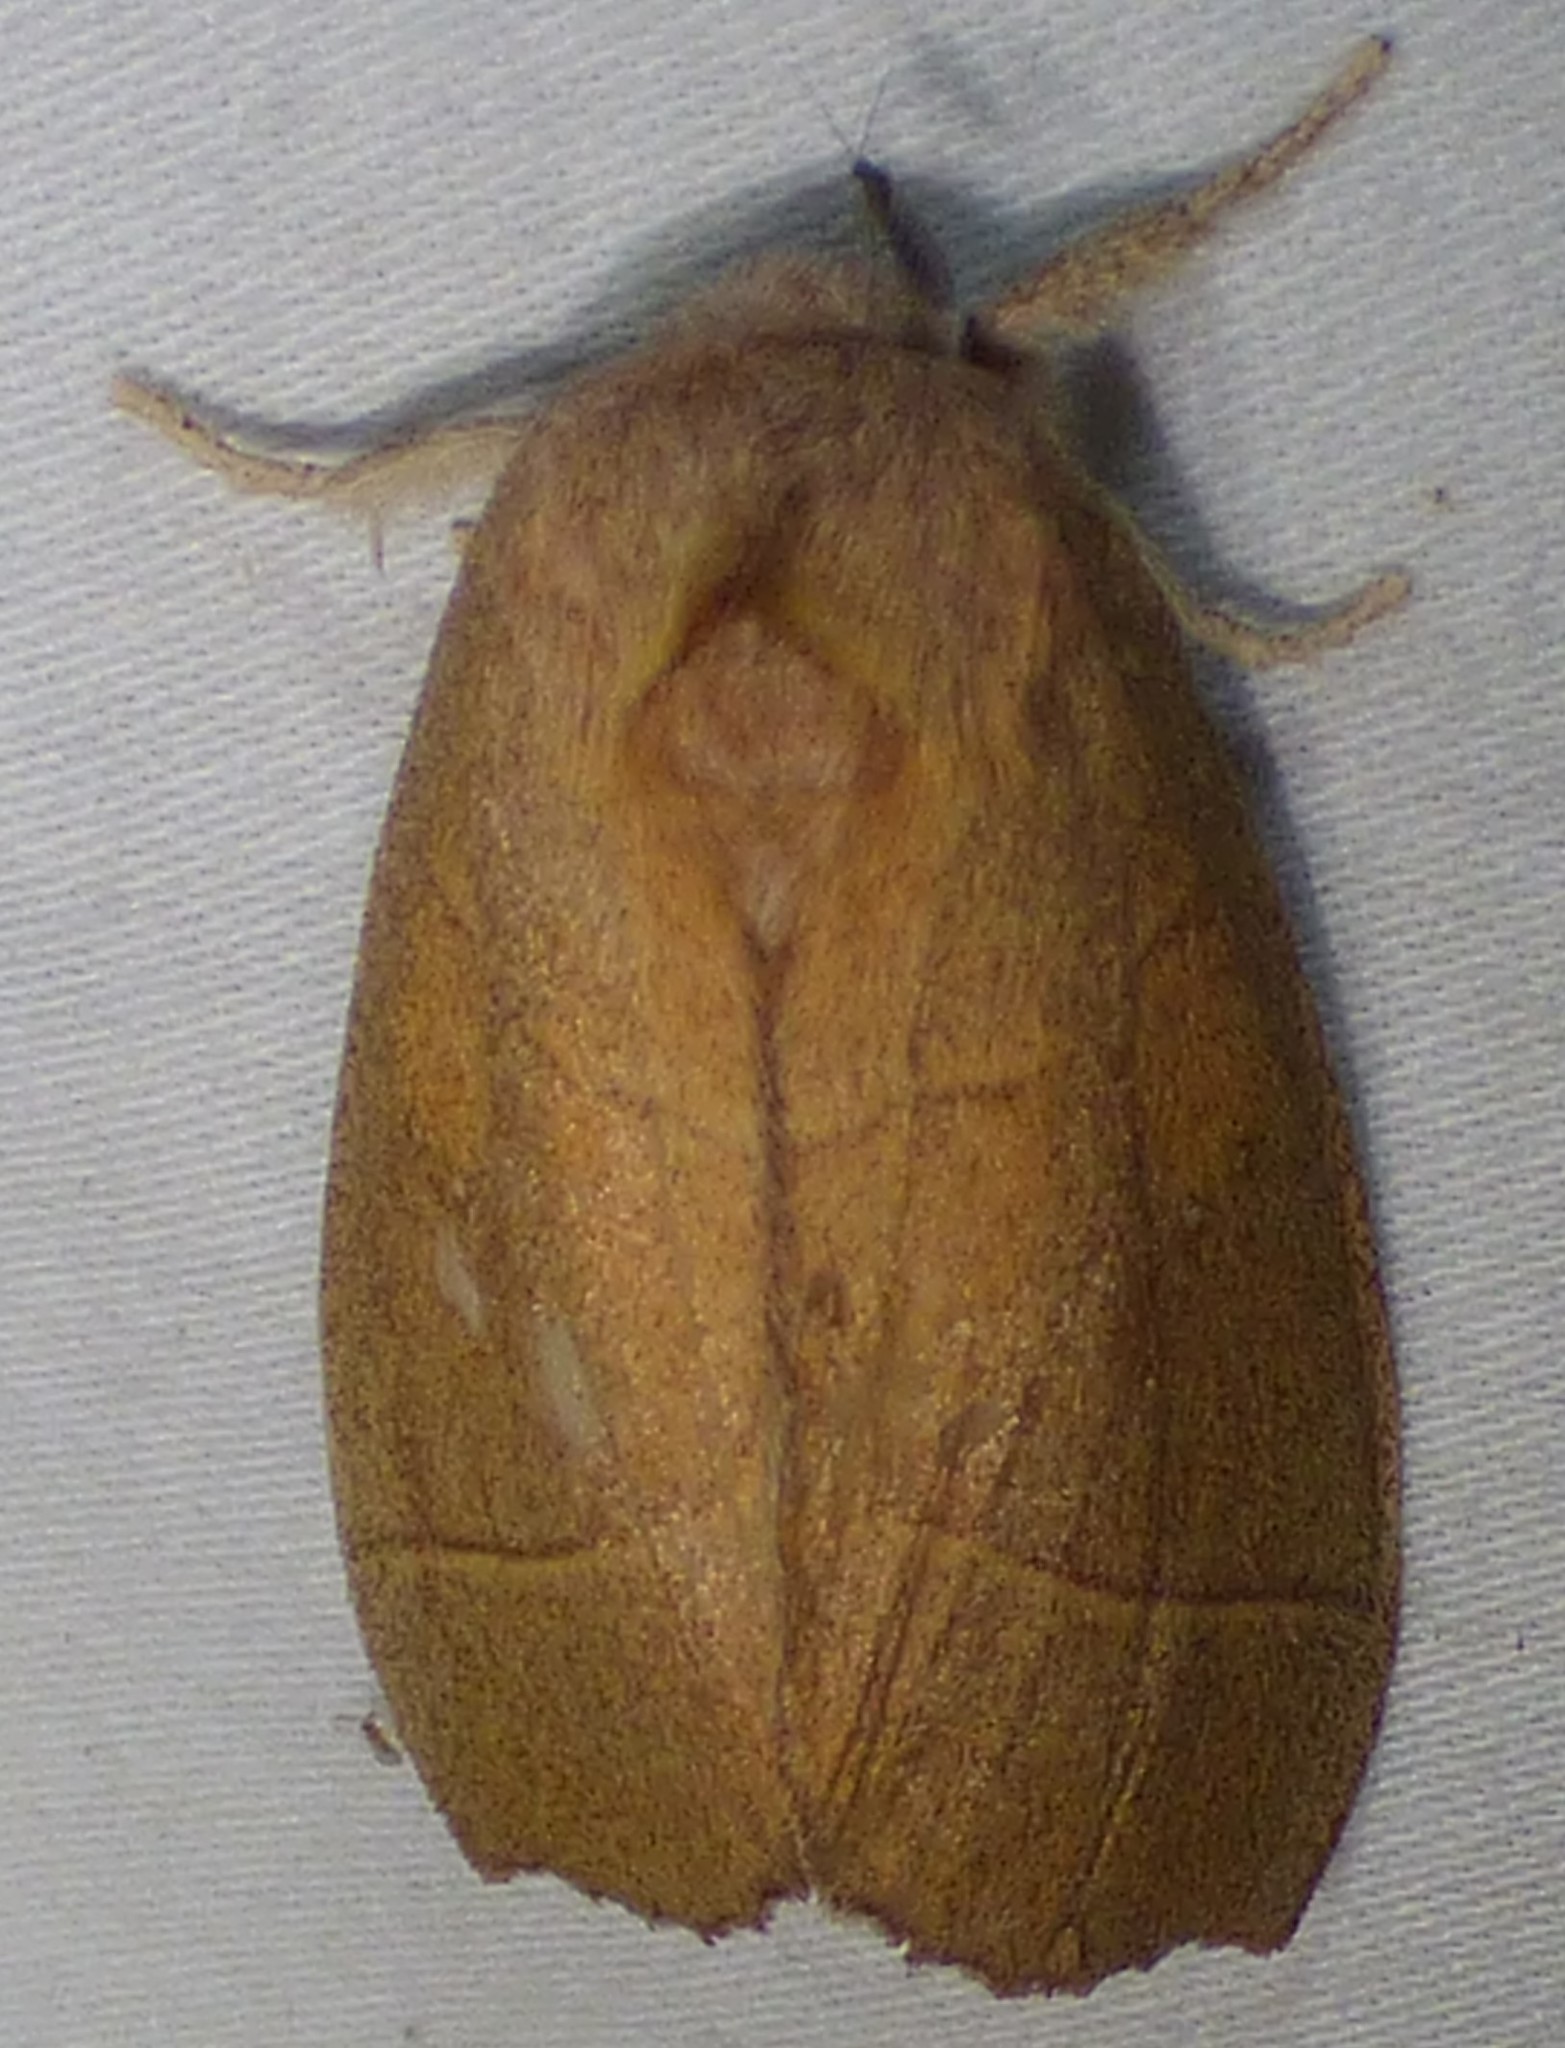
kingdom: Animalia
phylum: Arthropoda
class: Insecta
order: Lepidoptera
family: Notodontidae
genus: Nadata
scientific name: Nadata gibbosa
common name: White-dotted prominent
